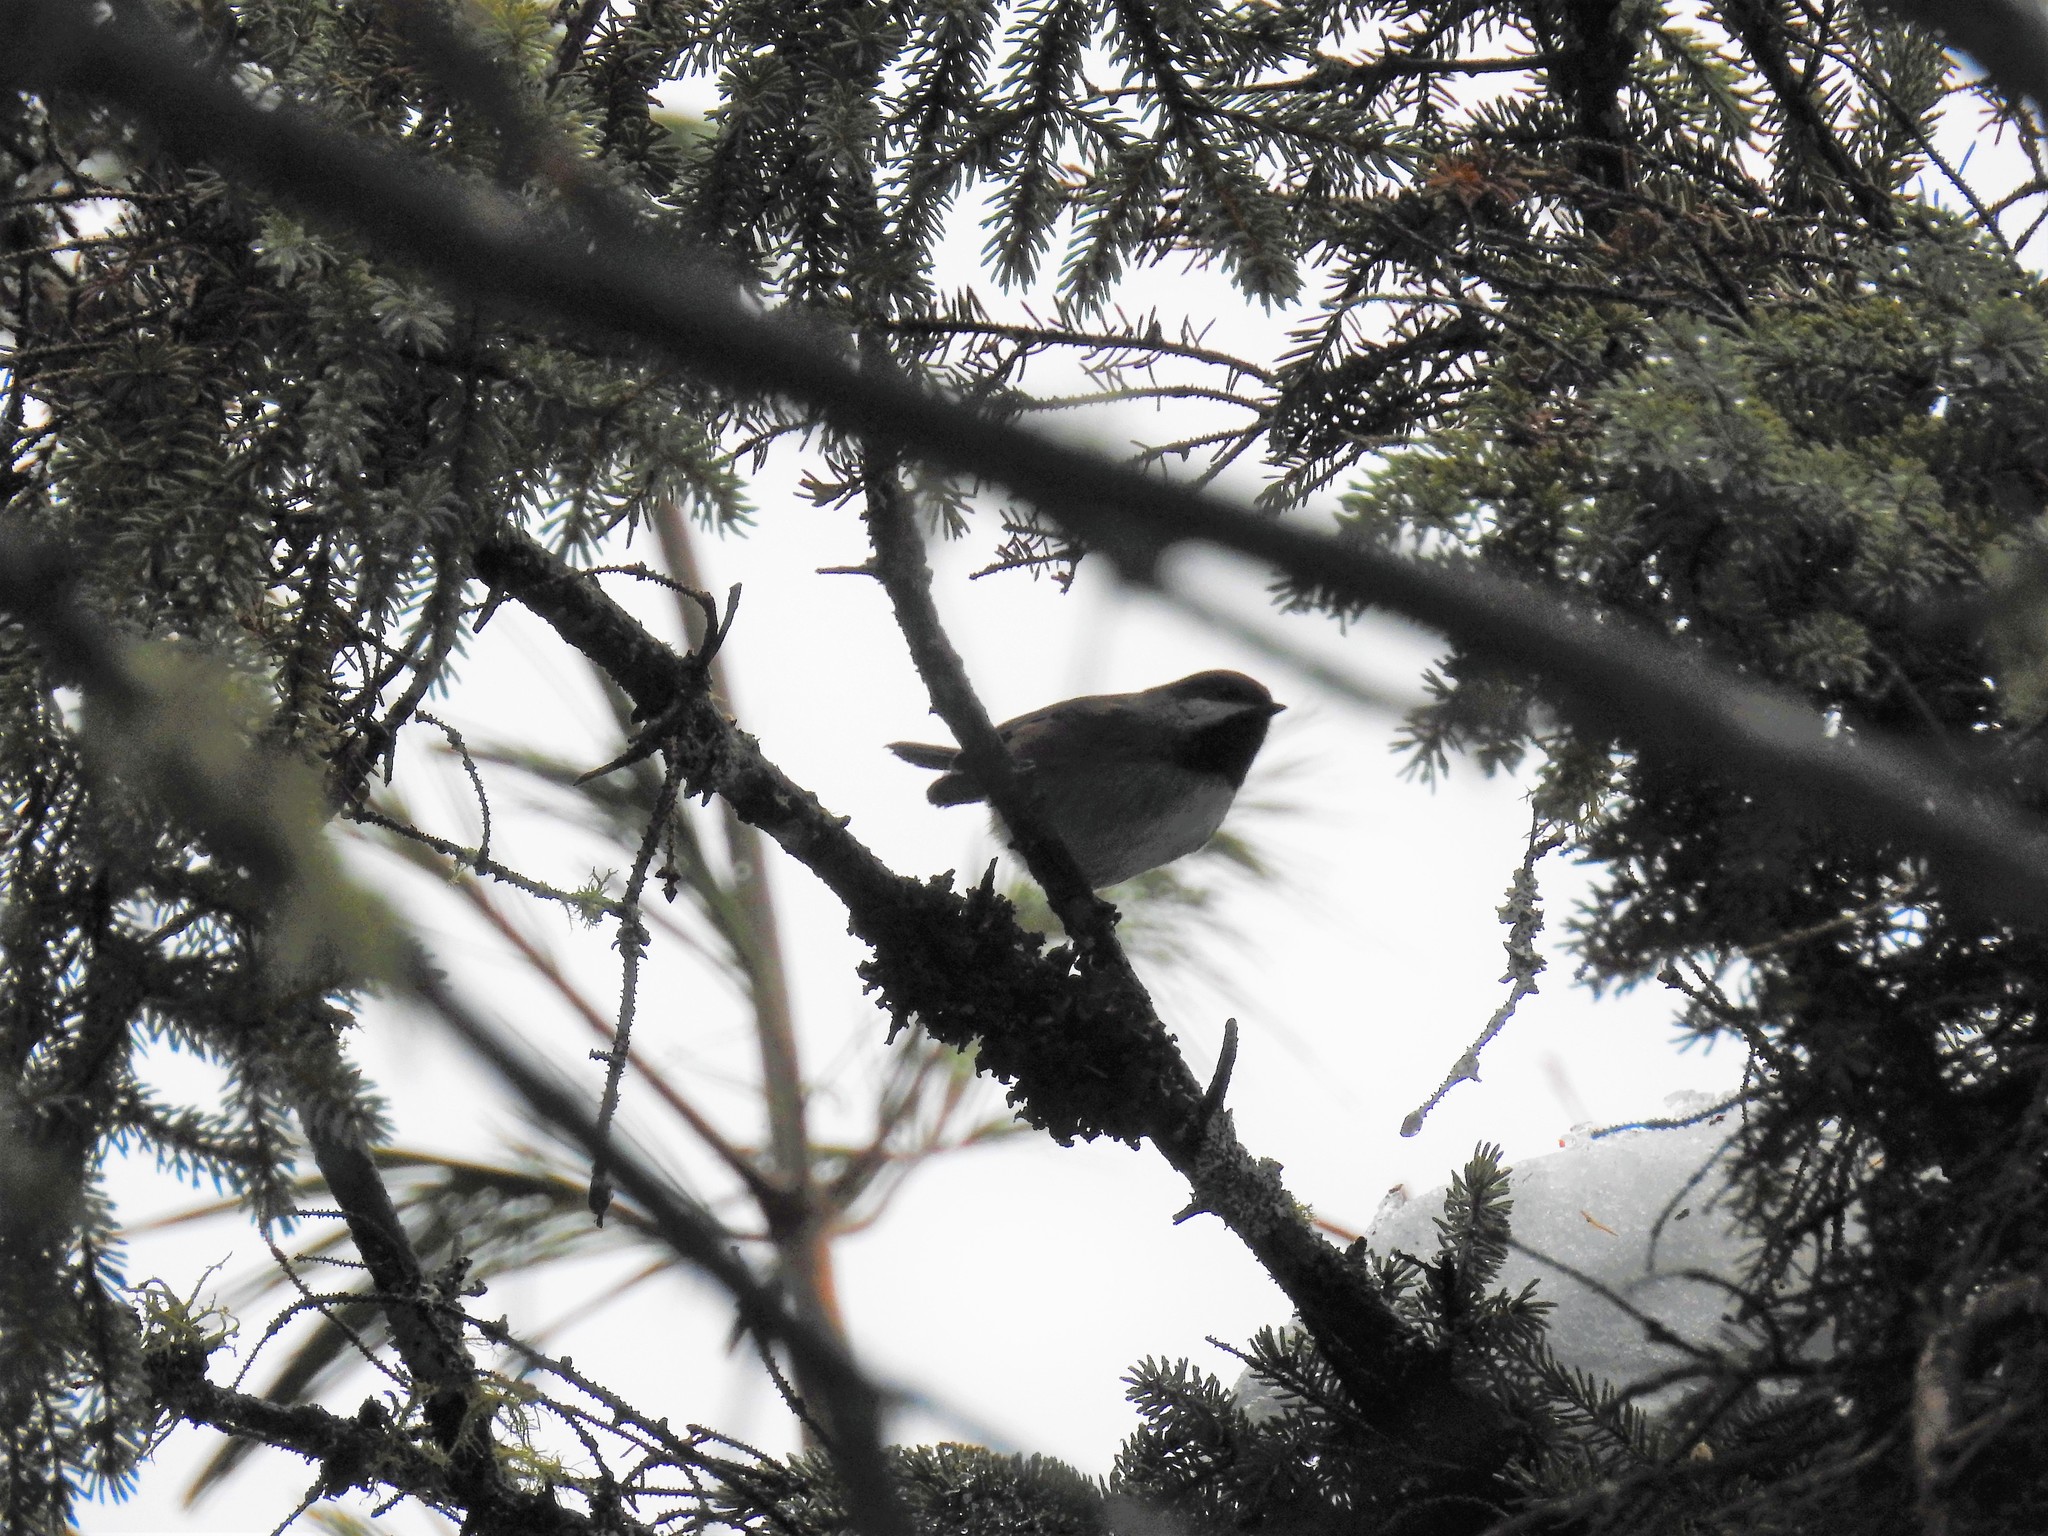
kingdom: Animalia
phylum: Chordata
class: Aves
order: Passeriformes
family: Paridae
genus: Poecile
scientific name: Poecile hudsonicus
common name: Boreal chickadee
